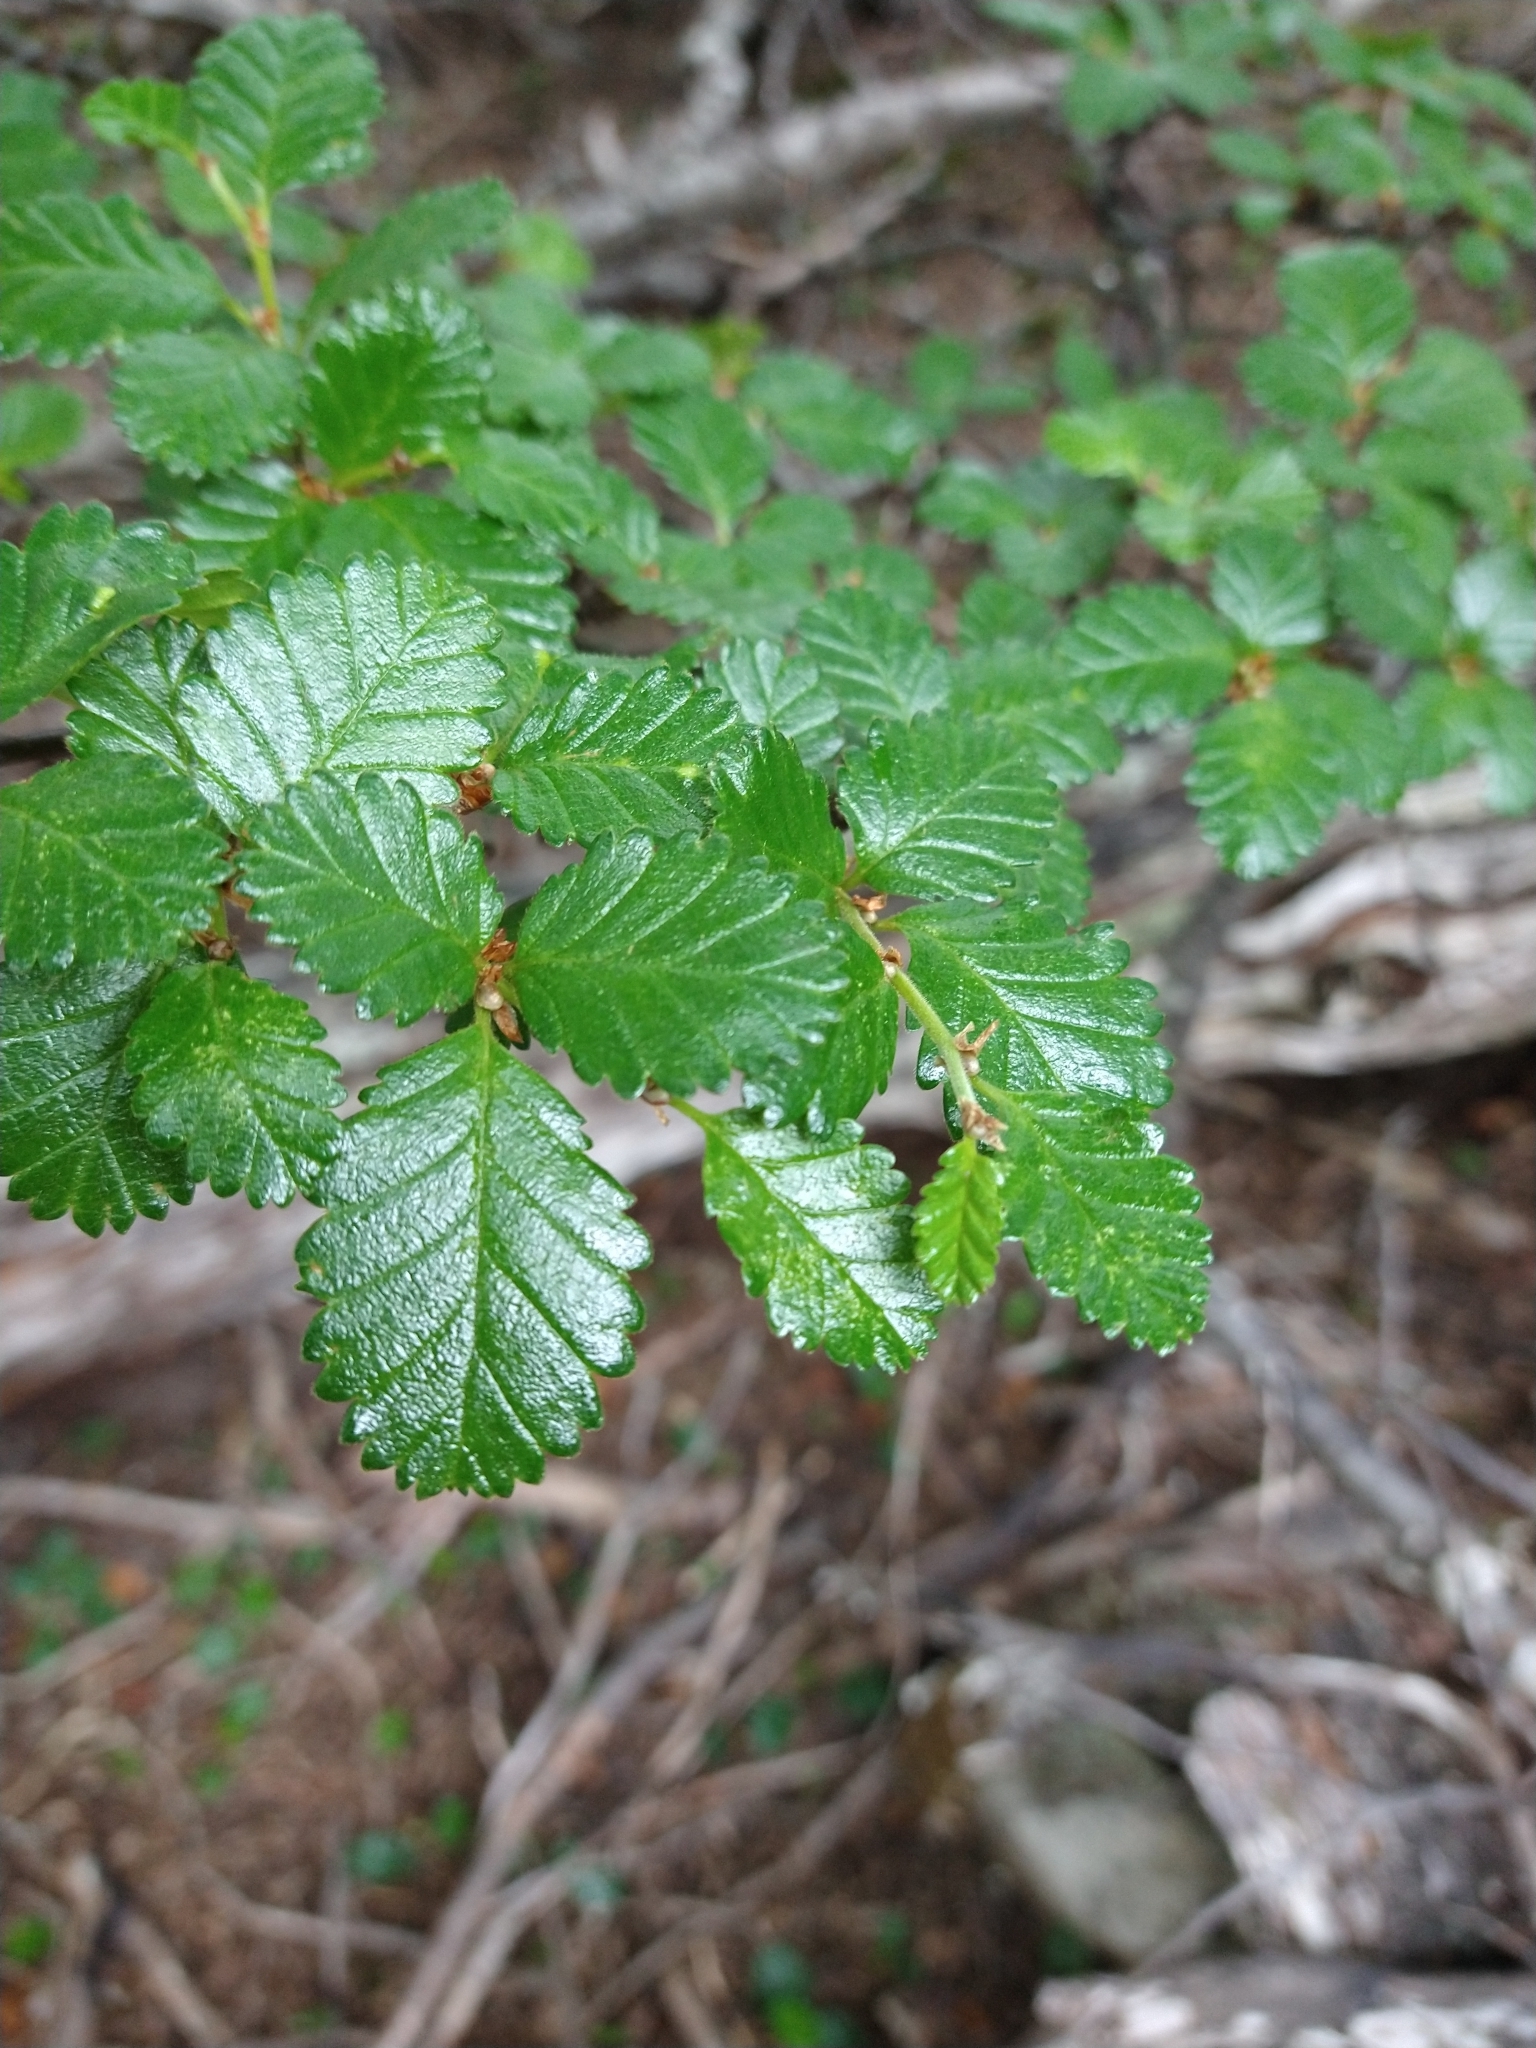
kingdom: Plantae
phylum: Tracheophyta
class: Magnoliopsida
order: Fagales
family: Nothofagaceae
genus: Nothofagus
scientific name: Nothofagus pumilio
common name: Lenga beech
